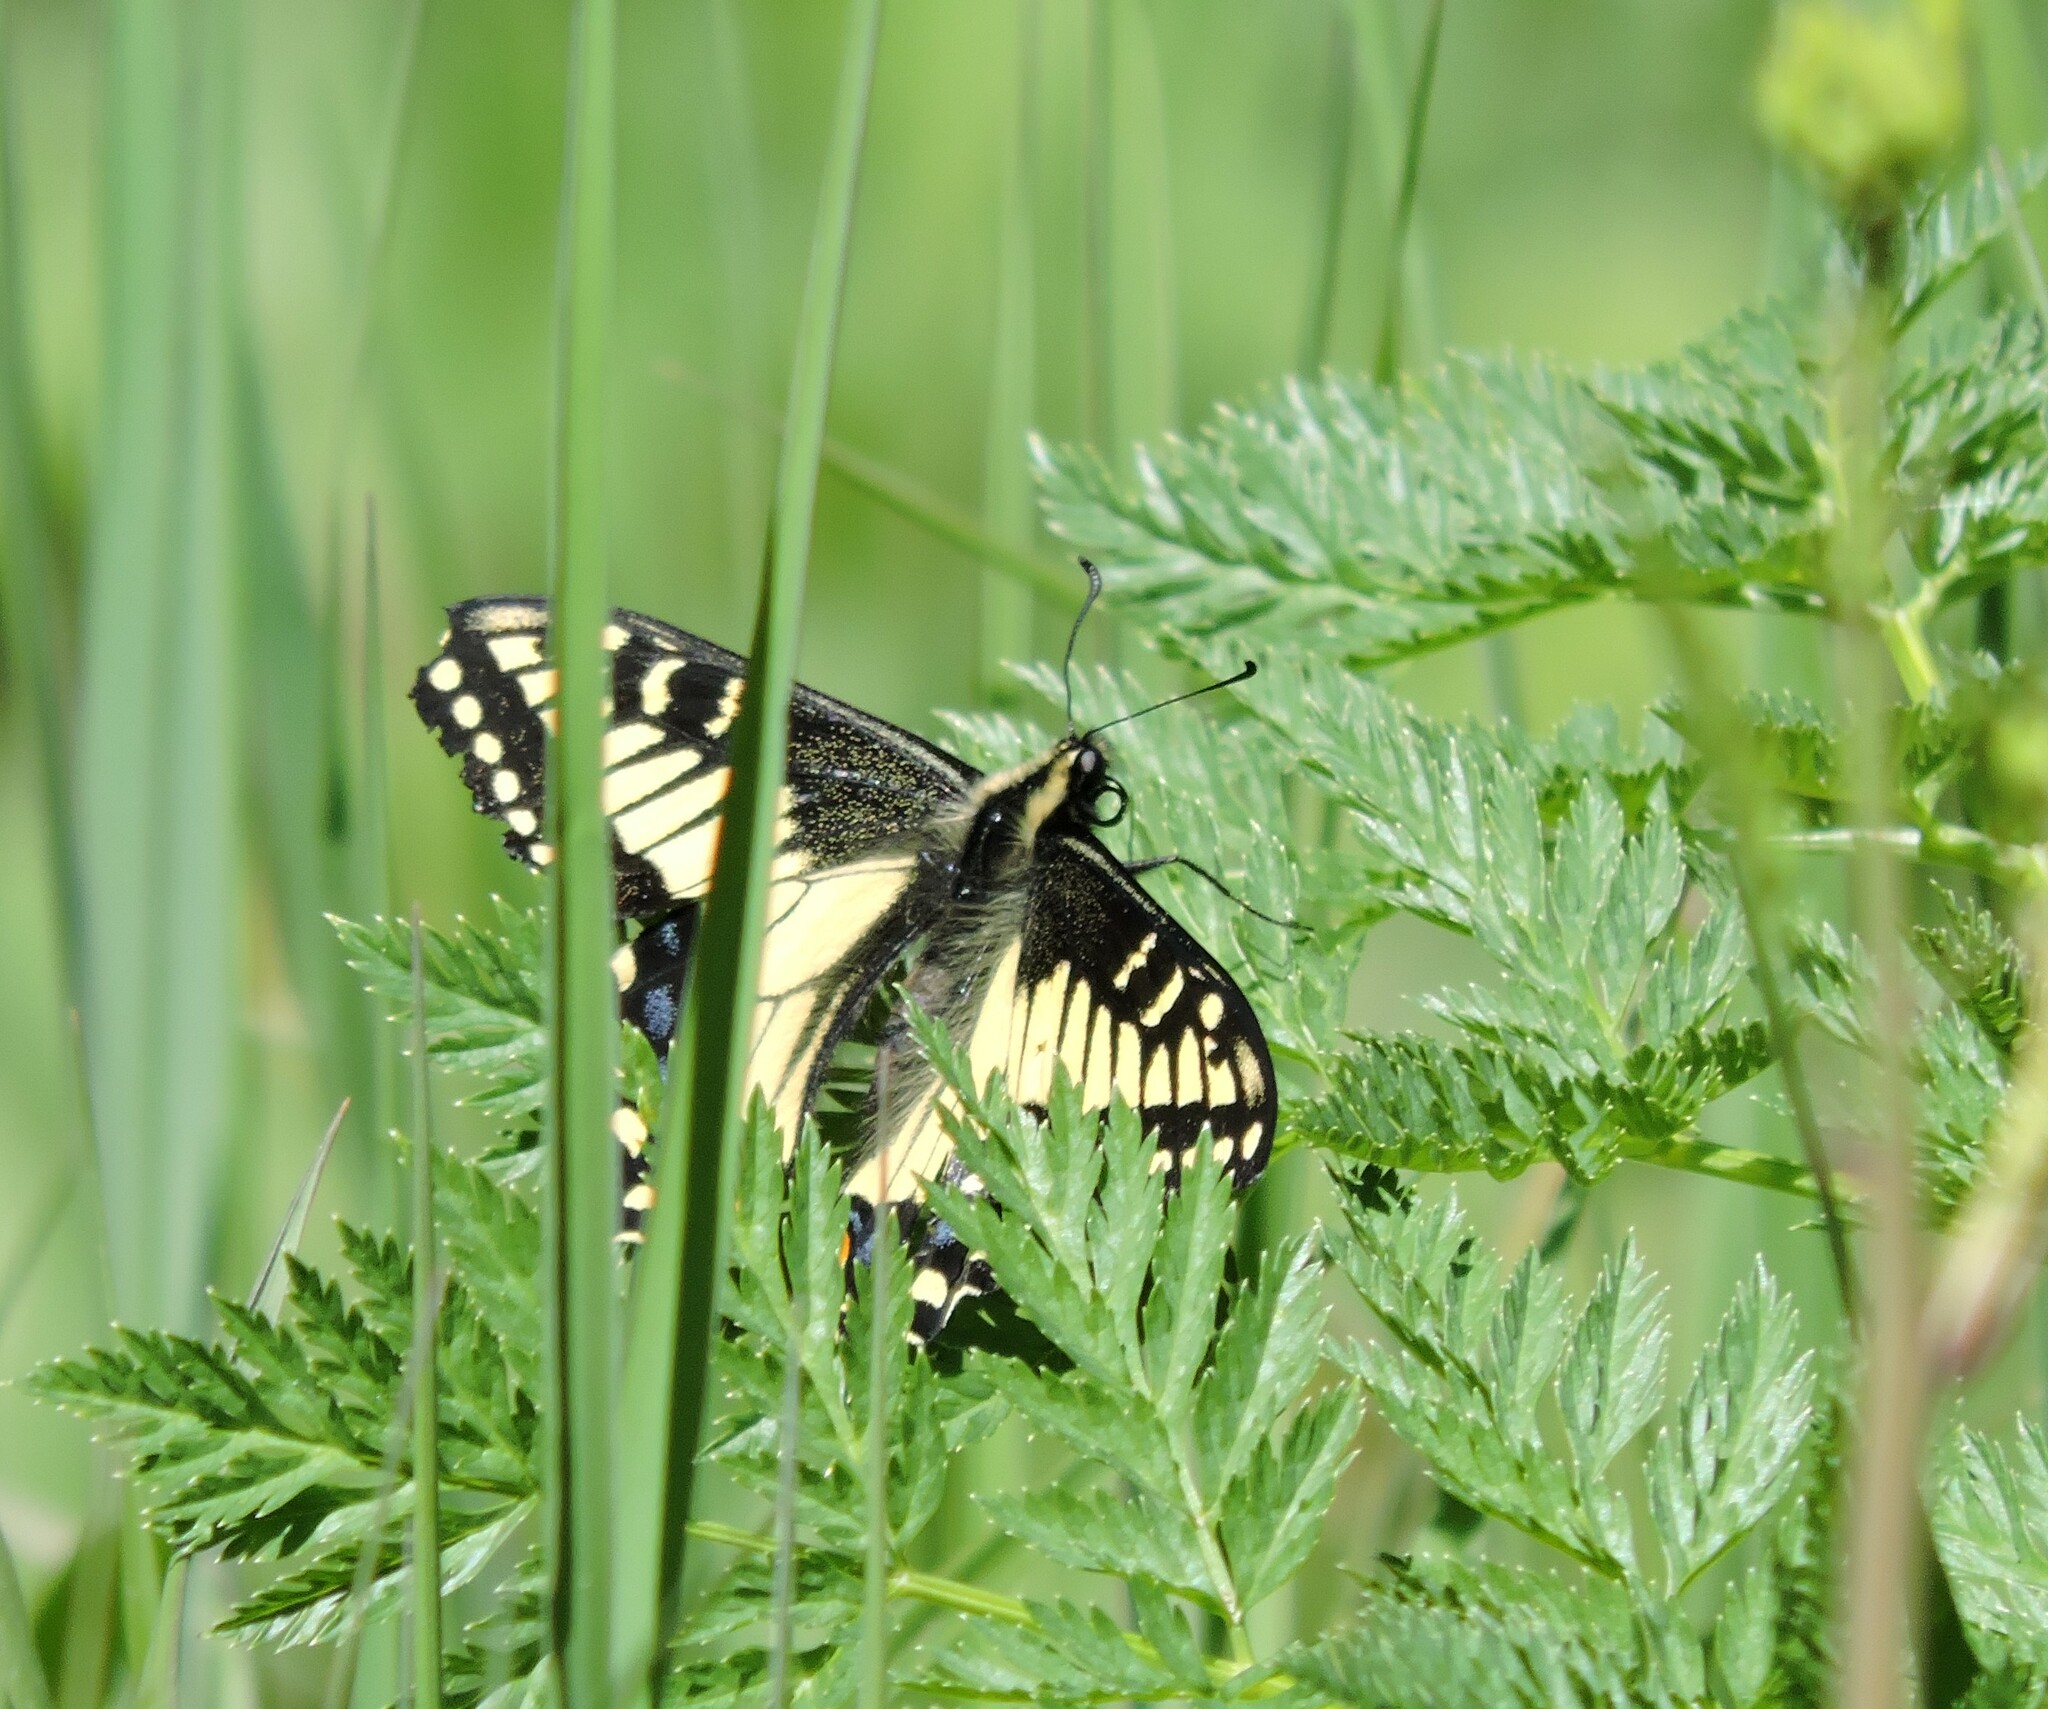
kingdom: Animalia
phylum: Arthropoda
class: Insecta
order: Lepidoptera
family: Papilionidae
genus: Papilio
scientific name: Papilio zelicaon
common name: Anise swallowtail
